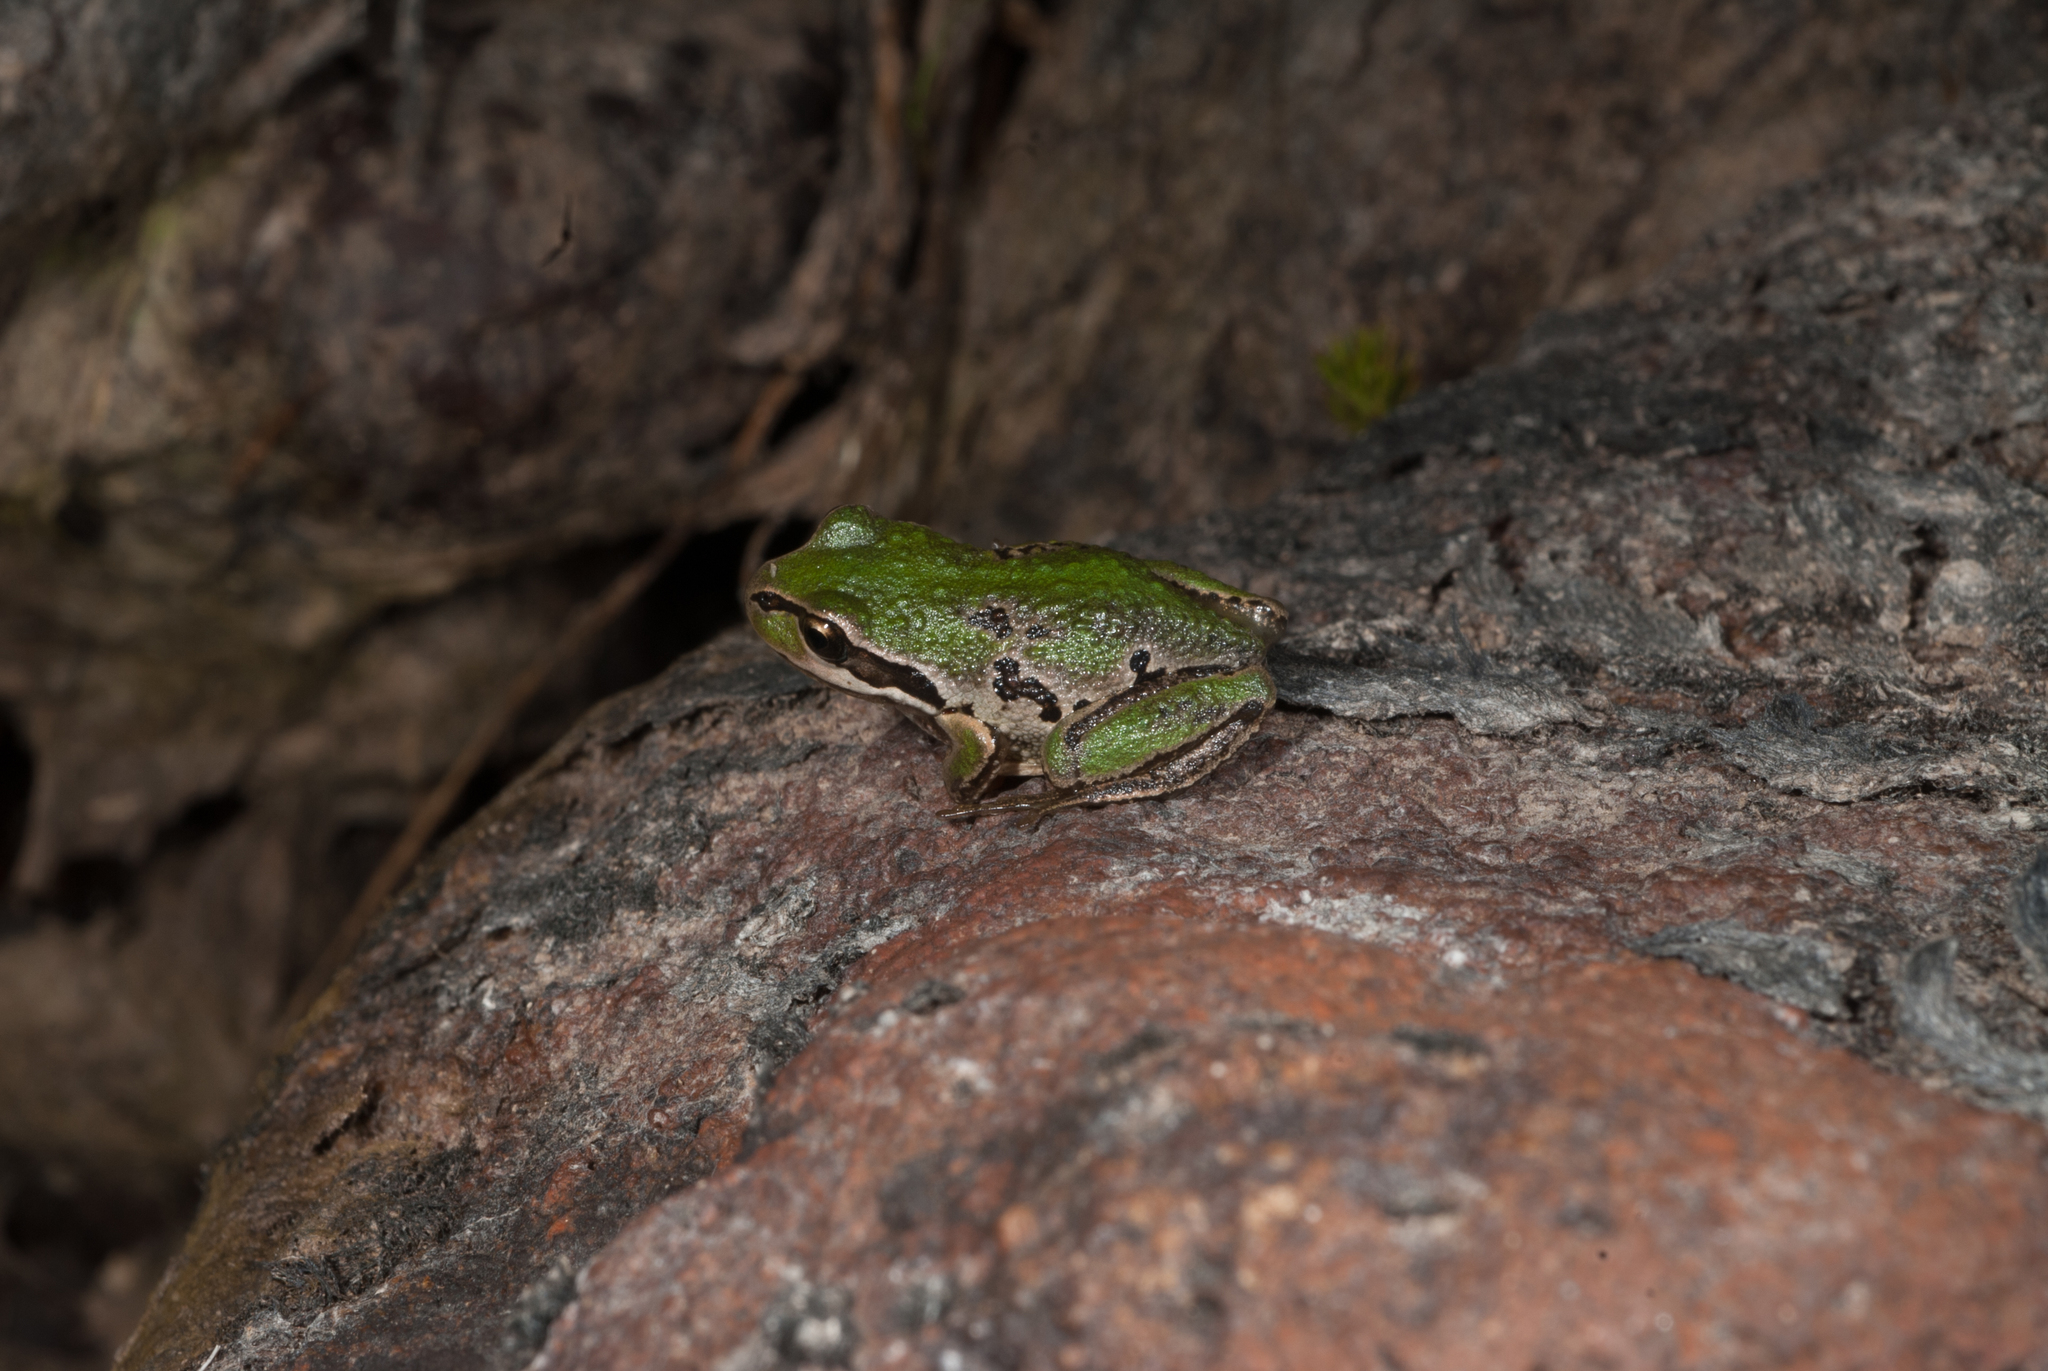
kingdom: Animalia
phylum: Chordata
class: Amphibia
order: Anura
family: Pelodryadidae
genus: Litoria
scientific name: Litoria verreauxii
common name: Alpine tree frog
